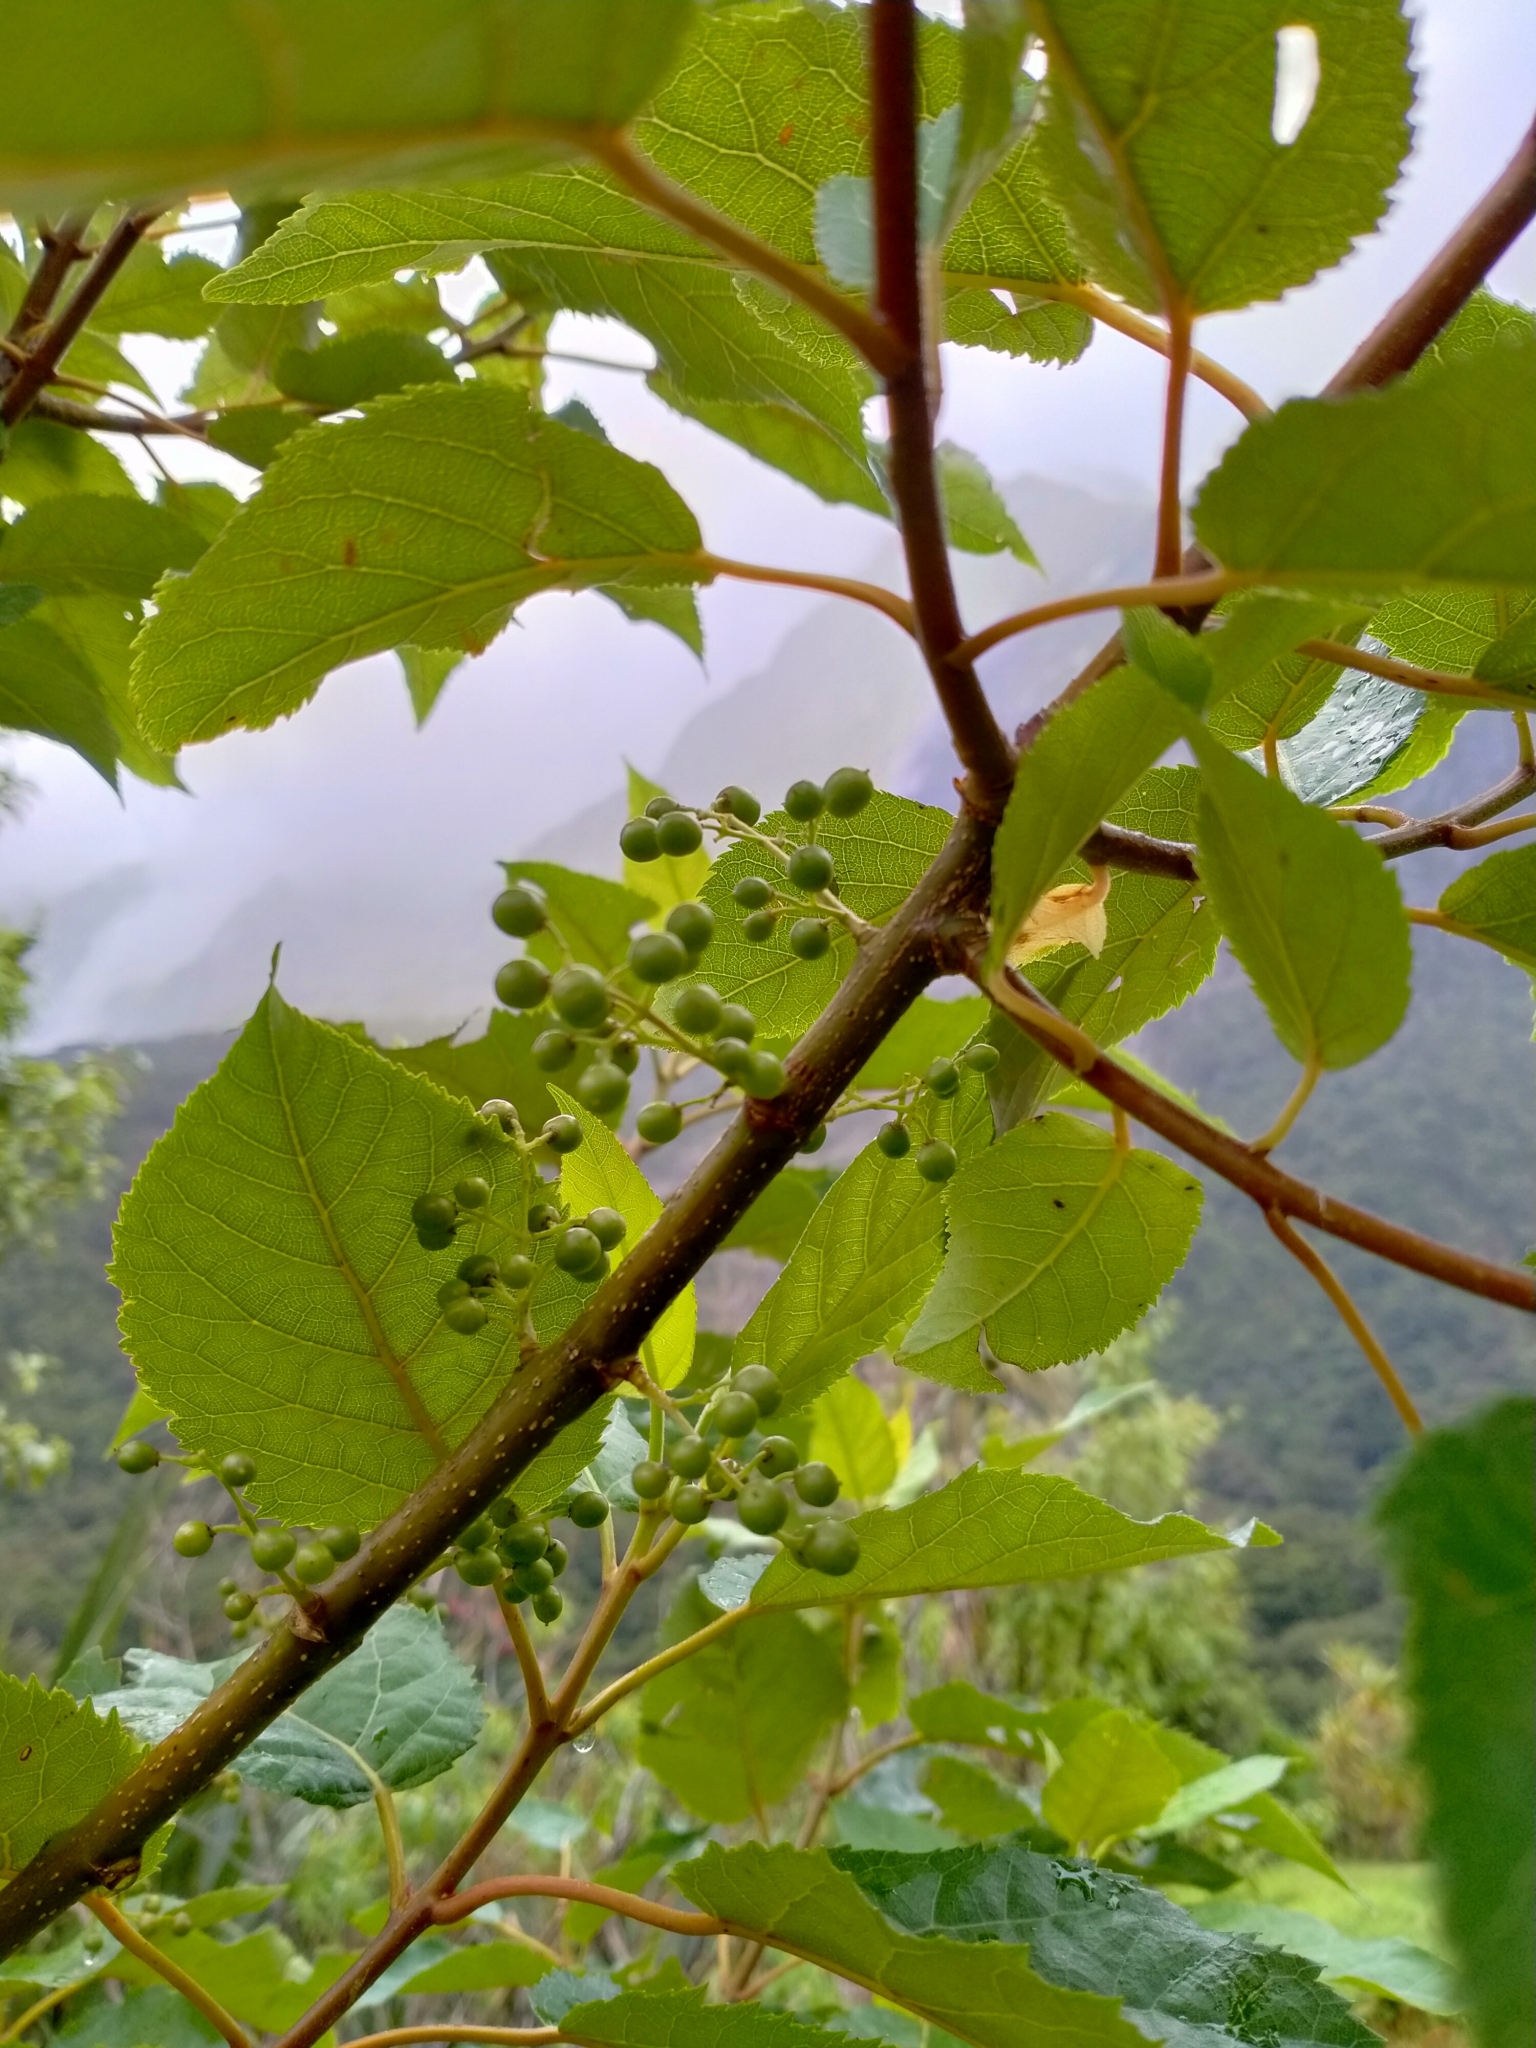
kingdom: Plantae
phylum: Tracheophyta
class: Magnoliopsida
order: Oxalidales
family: Elaeocarpaceae
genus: Aristotelia
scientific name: Aristotelia serrata
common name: New zealand wineberry
